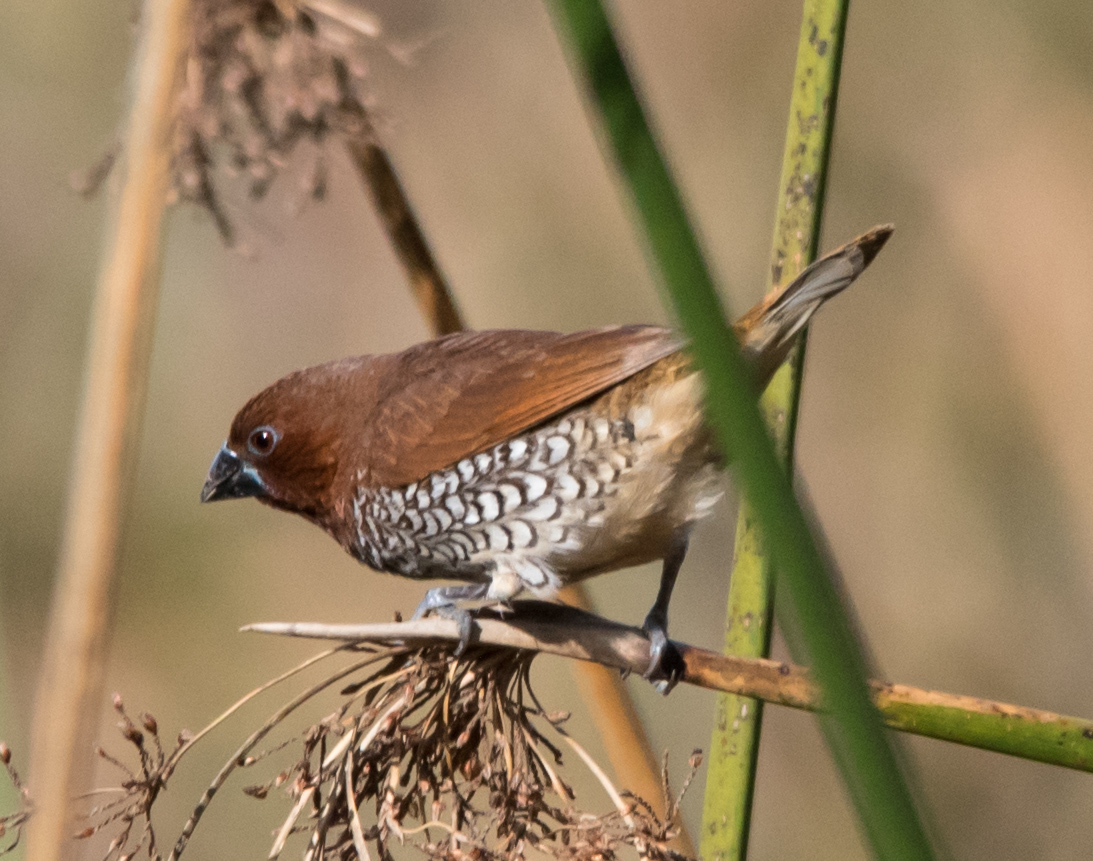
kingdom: Animalia
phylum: Chordata
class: Aves
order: Passeriformes
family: Estrildidae
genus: Lonchura
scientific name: Lonchura punctulata
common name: Scaly-breasted munia
